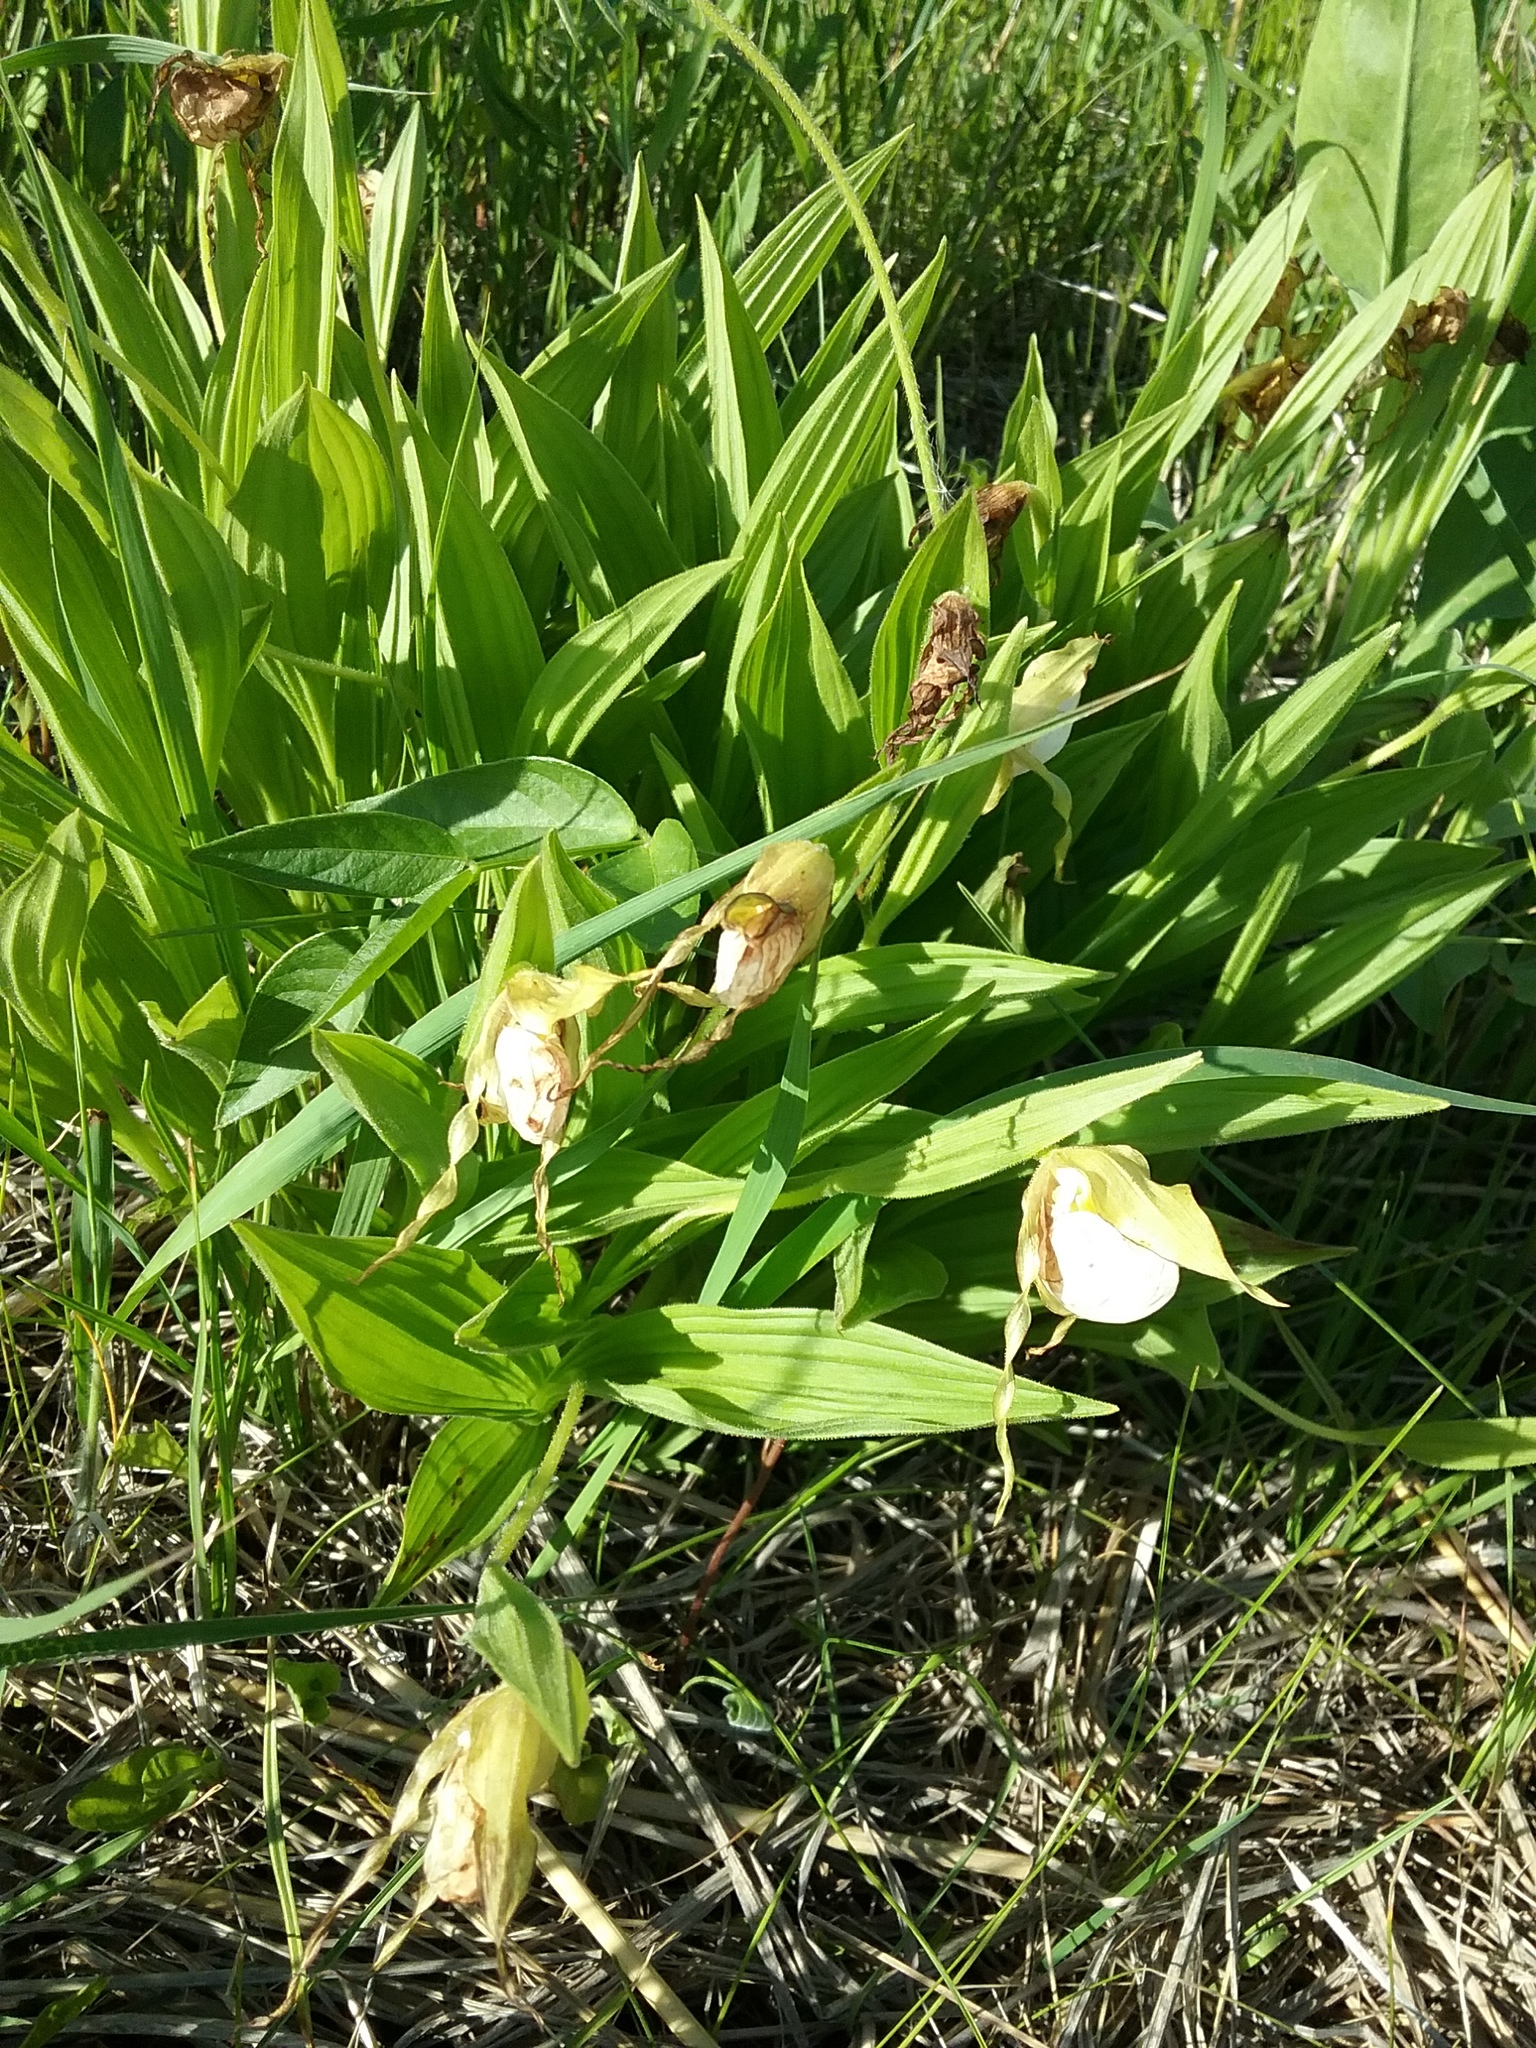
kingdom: Plantae
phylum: Tracheophyta
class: Liliopsida
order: Asparagales
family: Orchidaceae
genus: Cypripedium
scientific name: Cypripedium candidum
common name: White lady's-slipper
